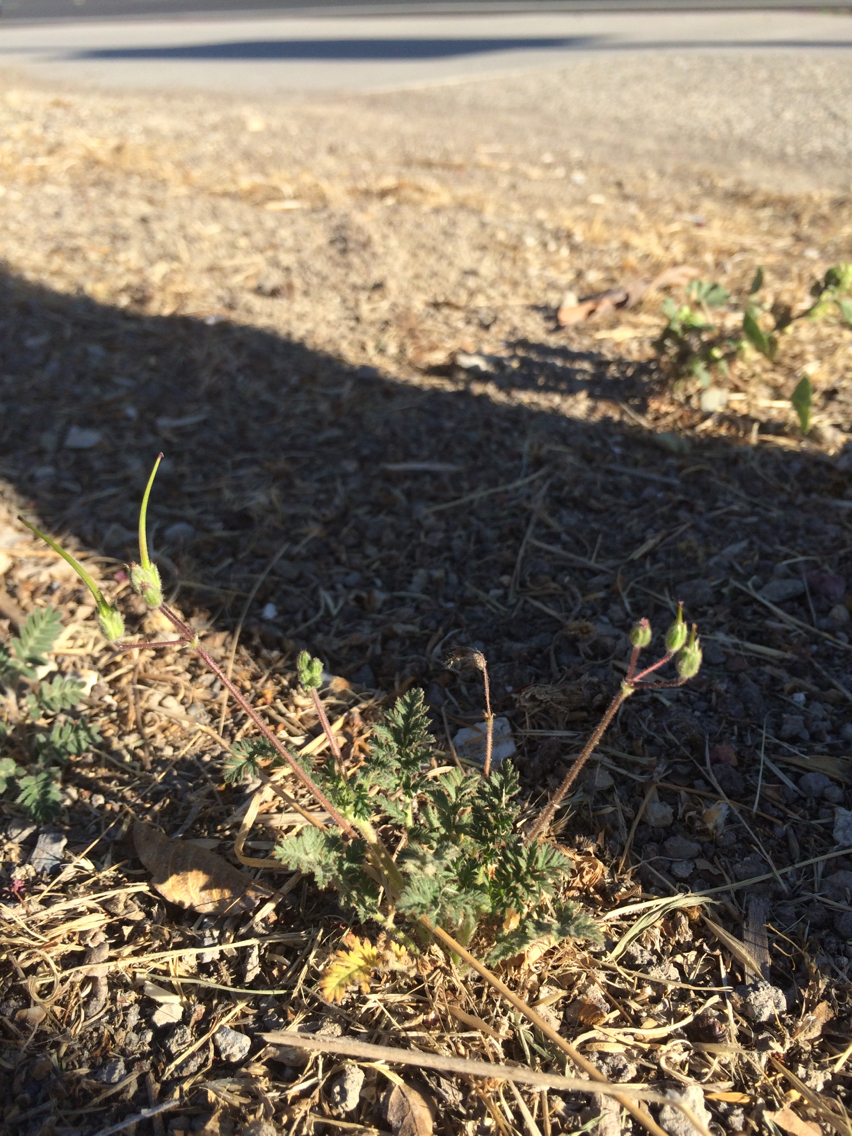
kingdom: Plantae
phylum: Tracheophyta
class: Magnoliopsida
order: Geraniales
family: Geraniaceae
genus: Erodium
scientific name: Erodium cicutarium
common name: Common stork's-bill
